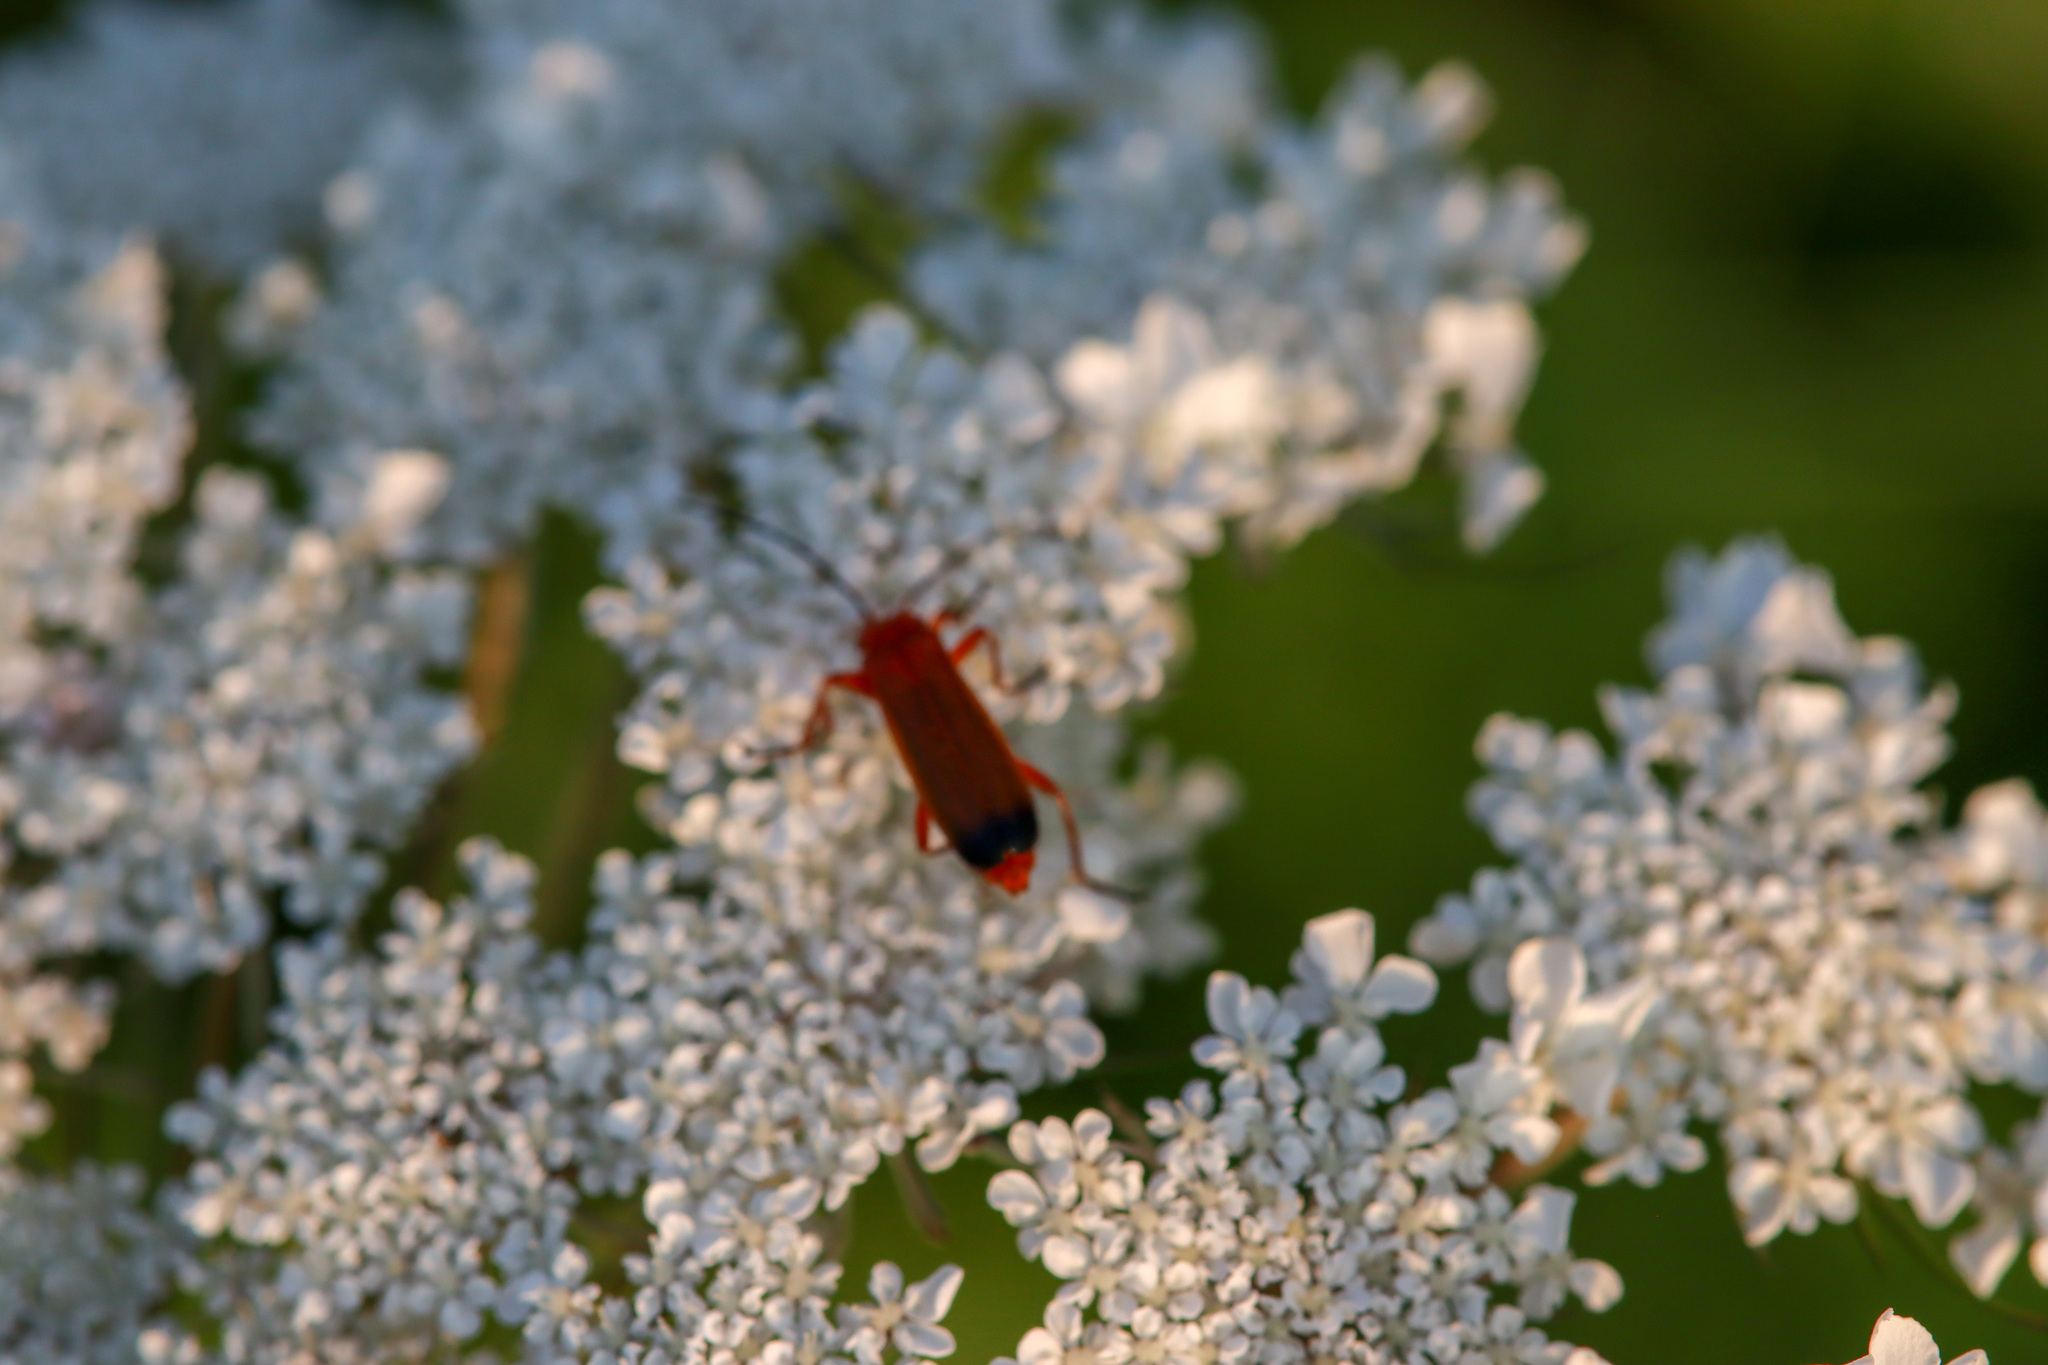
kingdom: Animalia
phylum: Arthropoda
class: Insecta
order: Coleoptera
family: Cantharidae
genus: Rhagonycha
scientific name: Rhagonycha fulva
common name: Common red soldier beetle
